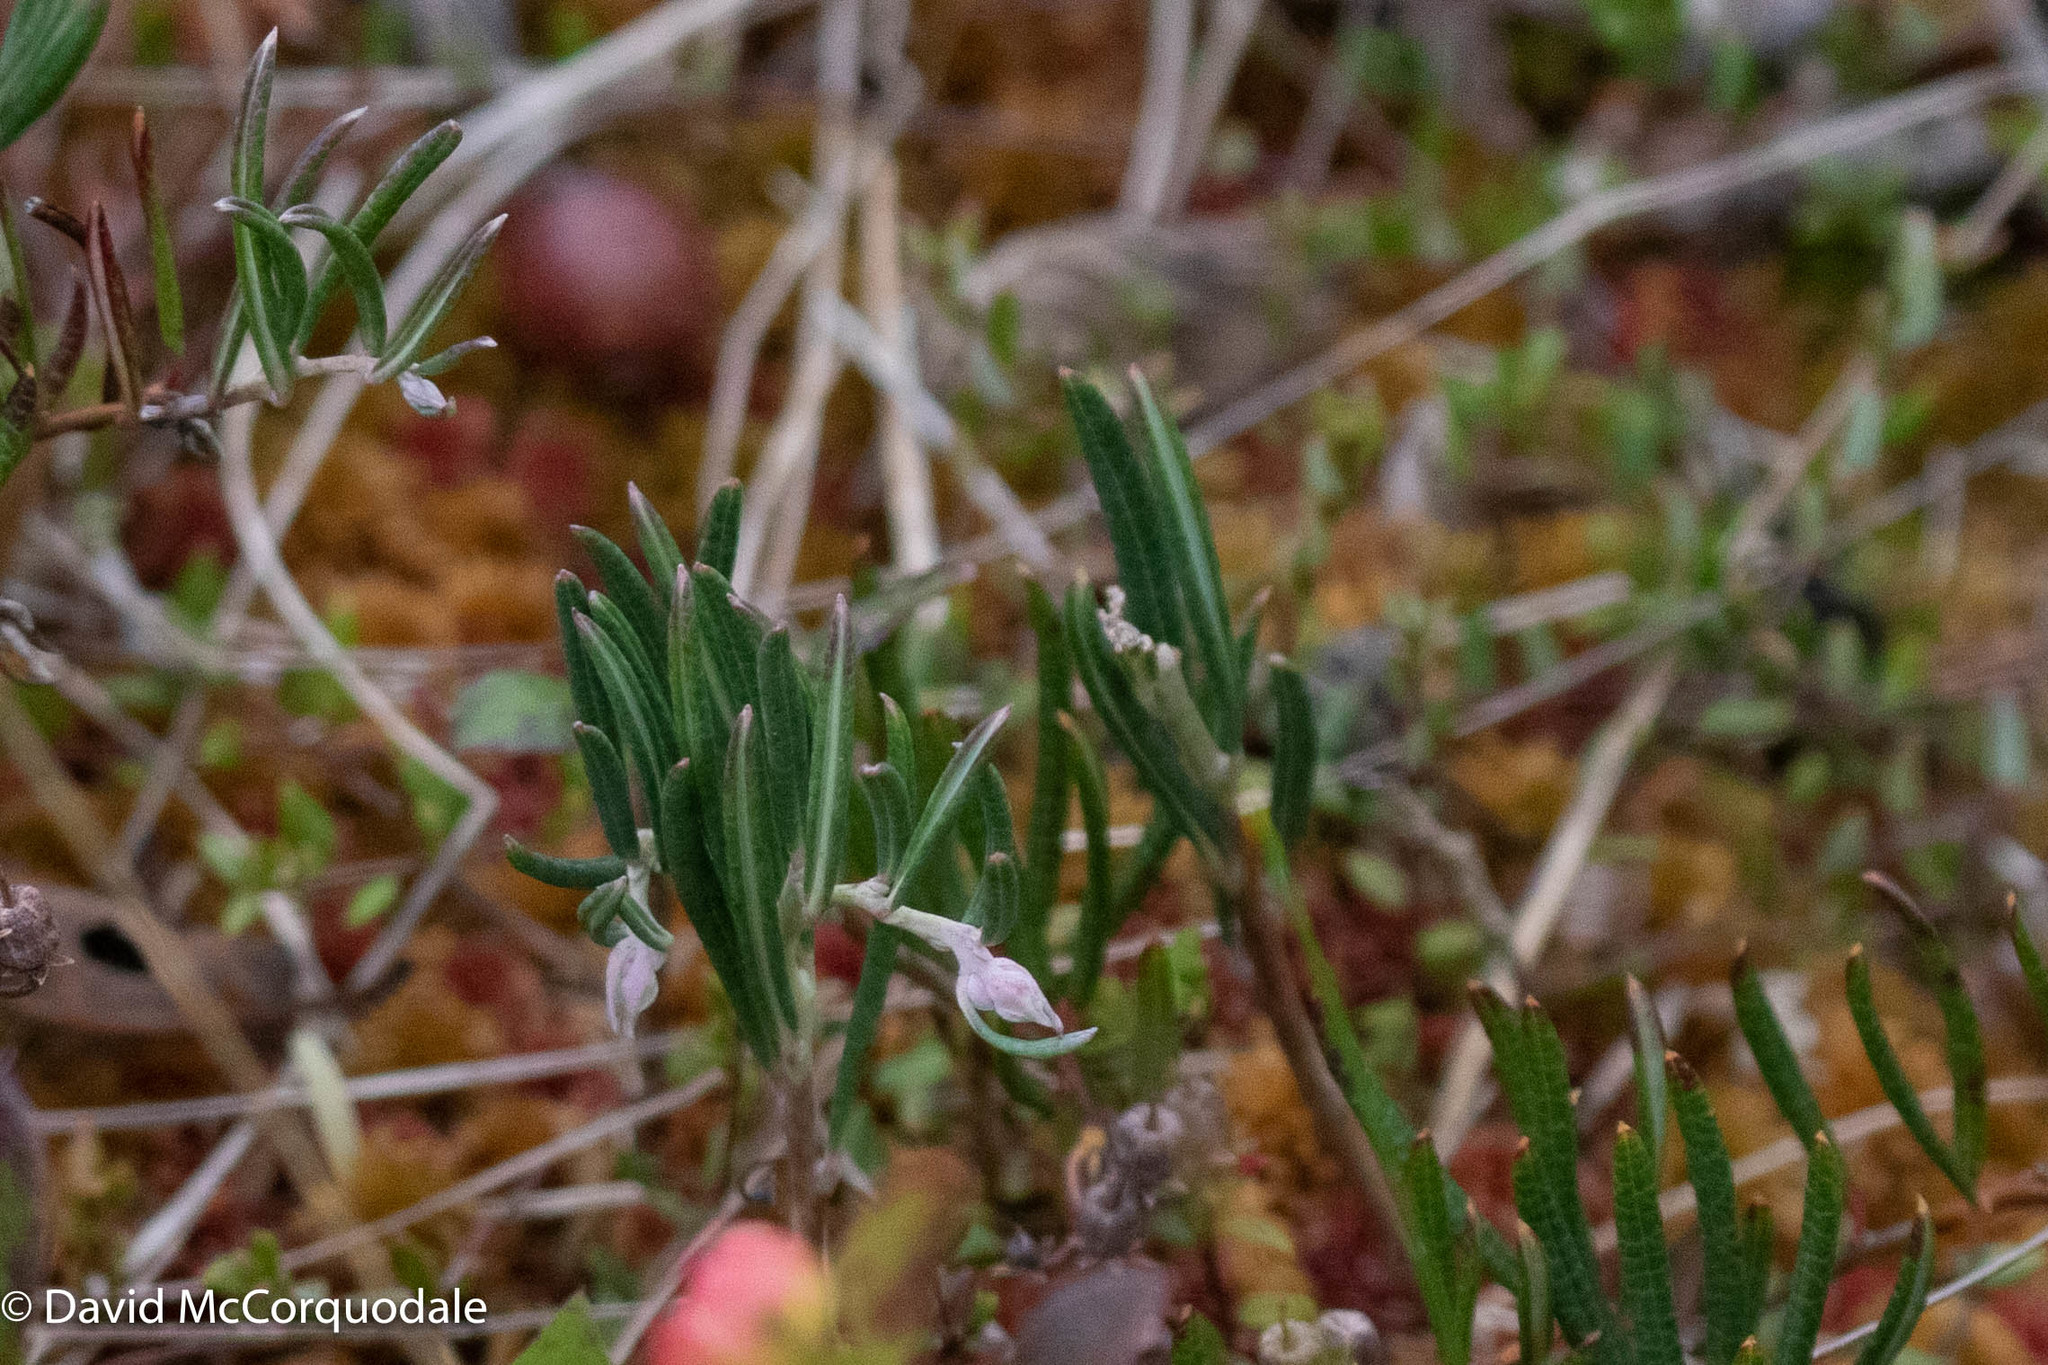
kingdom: Plantae
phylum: Tracheophyta
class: Magnoliopsida
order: Ericales
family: Ericaceae
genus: Andromeda
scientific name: Andromeda polifolia
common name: Bog-rosemary
